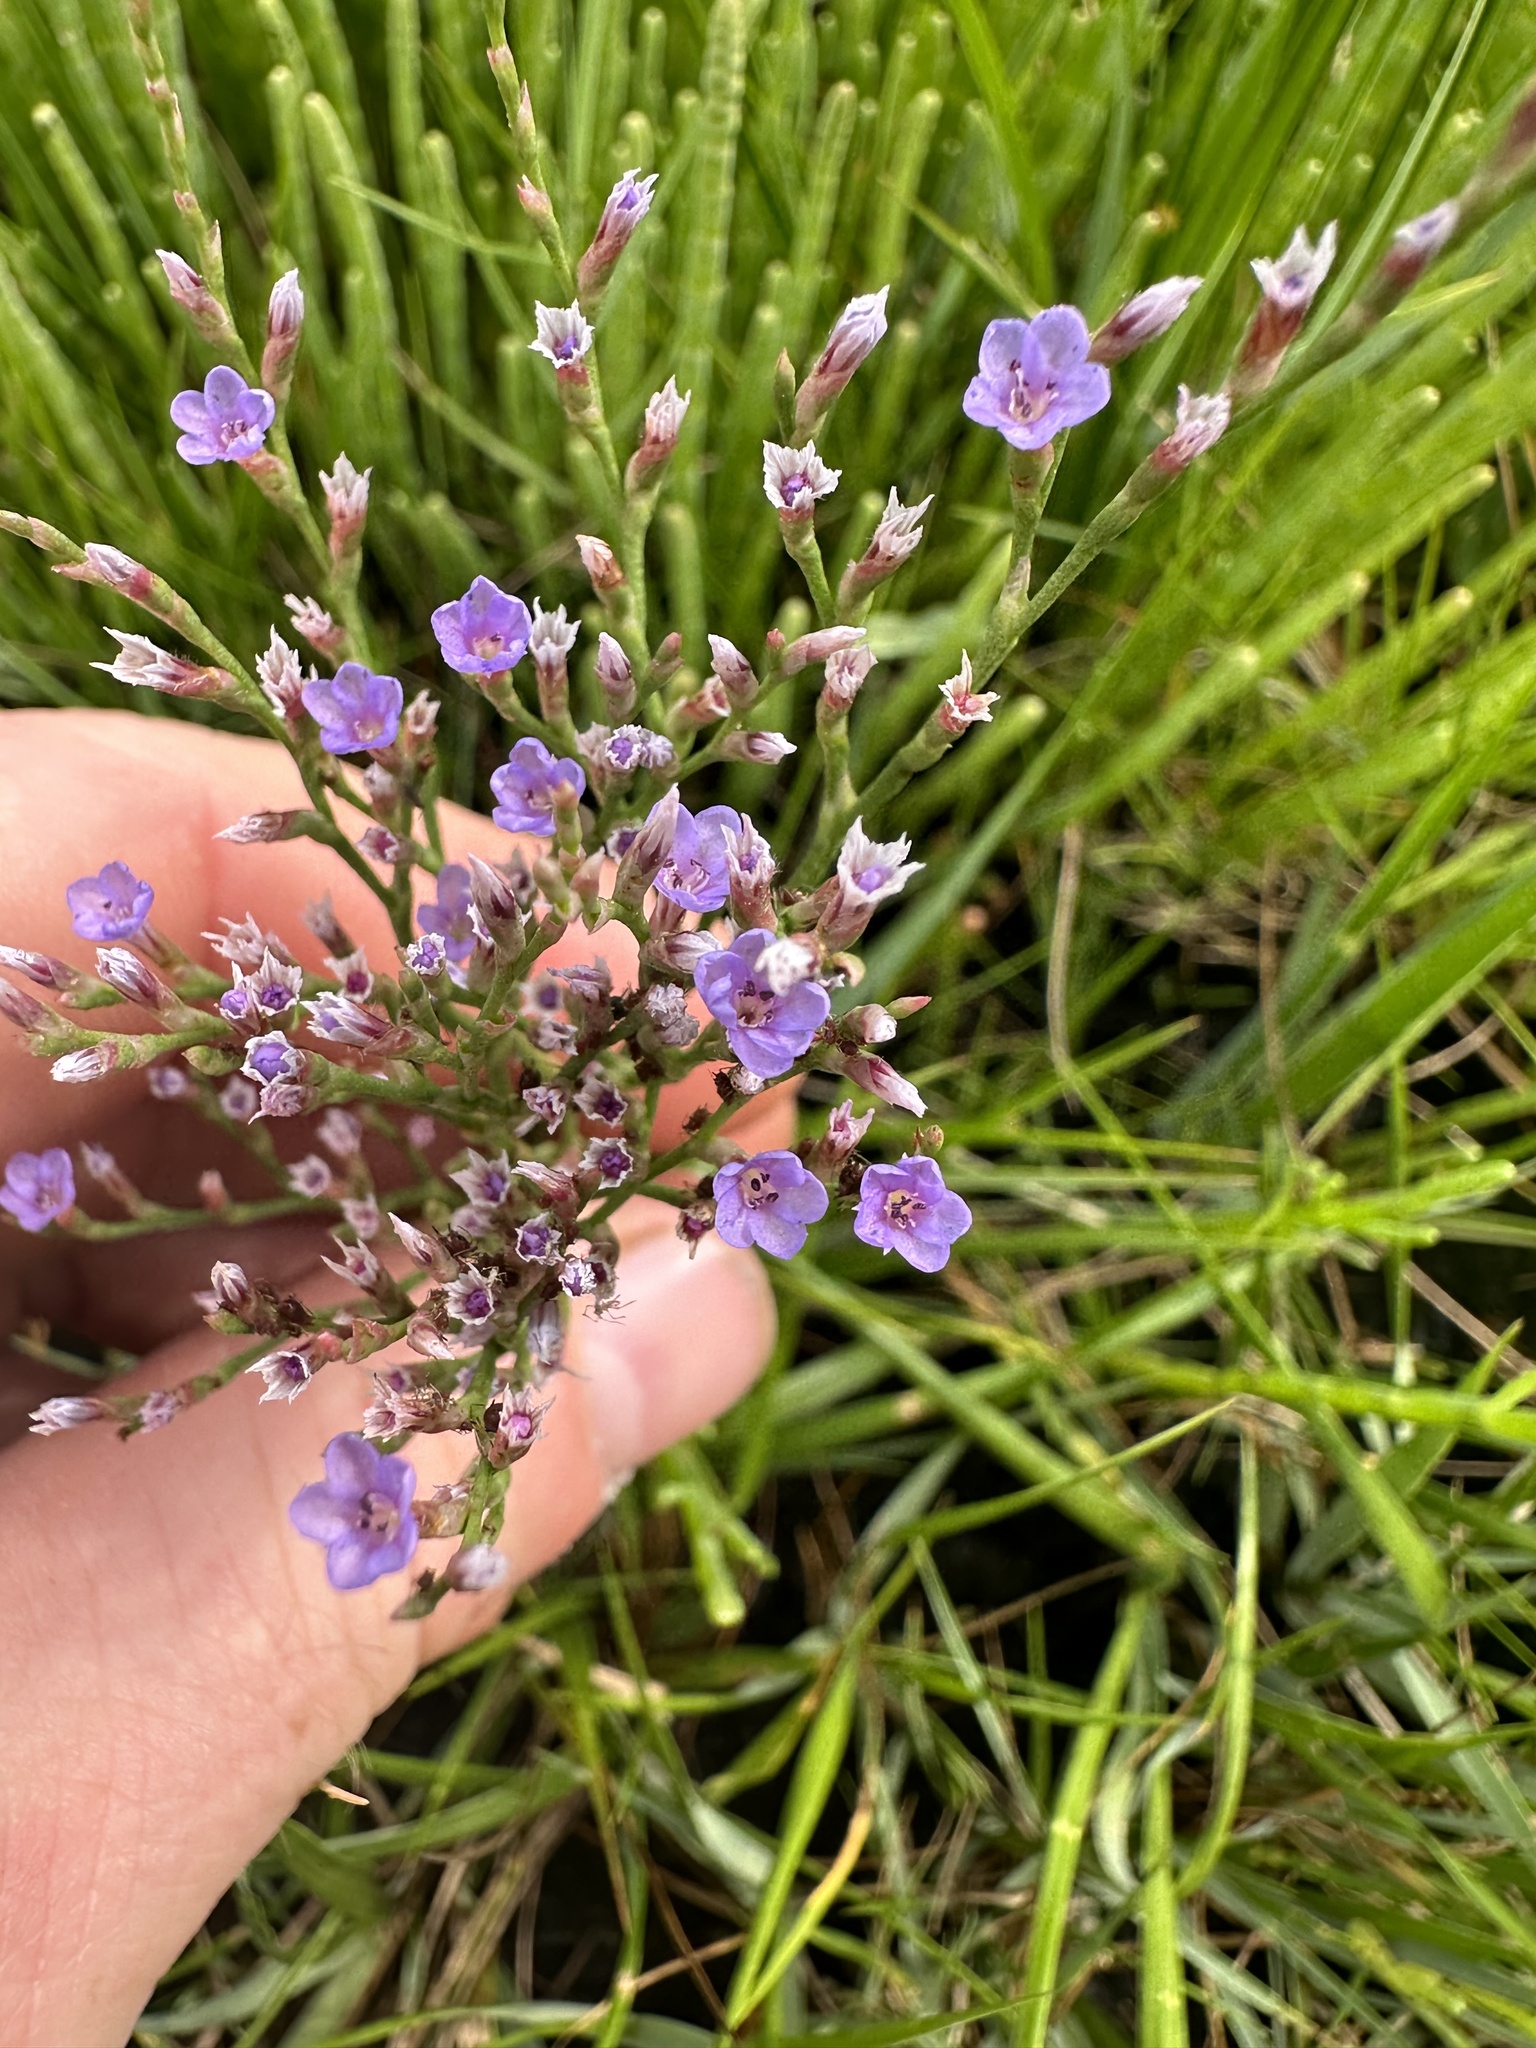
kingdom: Plantae
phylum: Tracheophyta
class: Magnoliopsida
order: Caryophyllales
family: Plumbaginaceae
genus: Limonium
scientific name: Limonium carolinianum
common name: Carolina sea lavender
